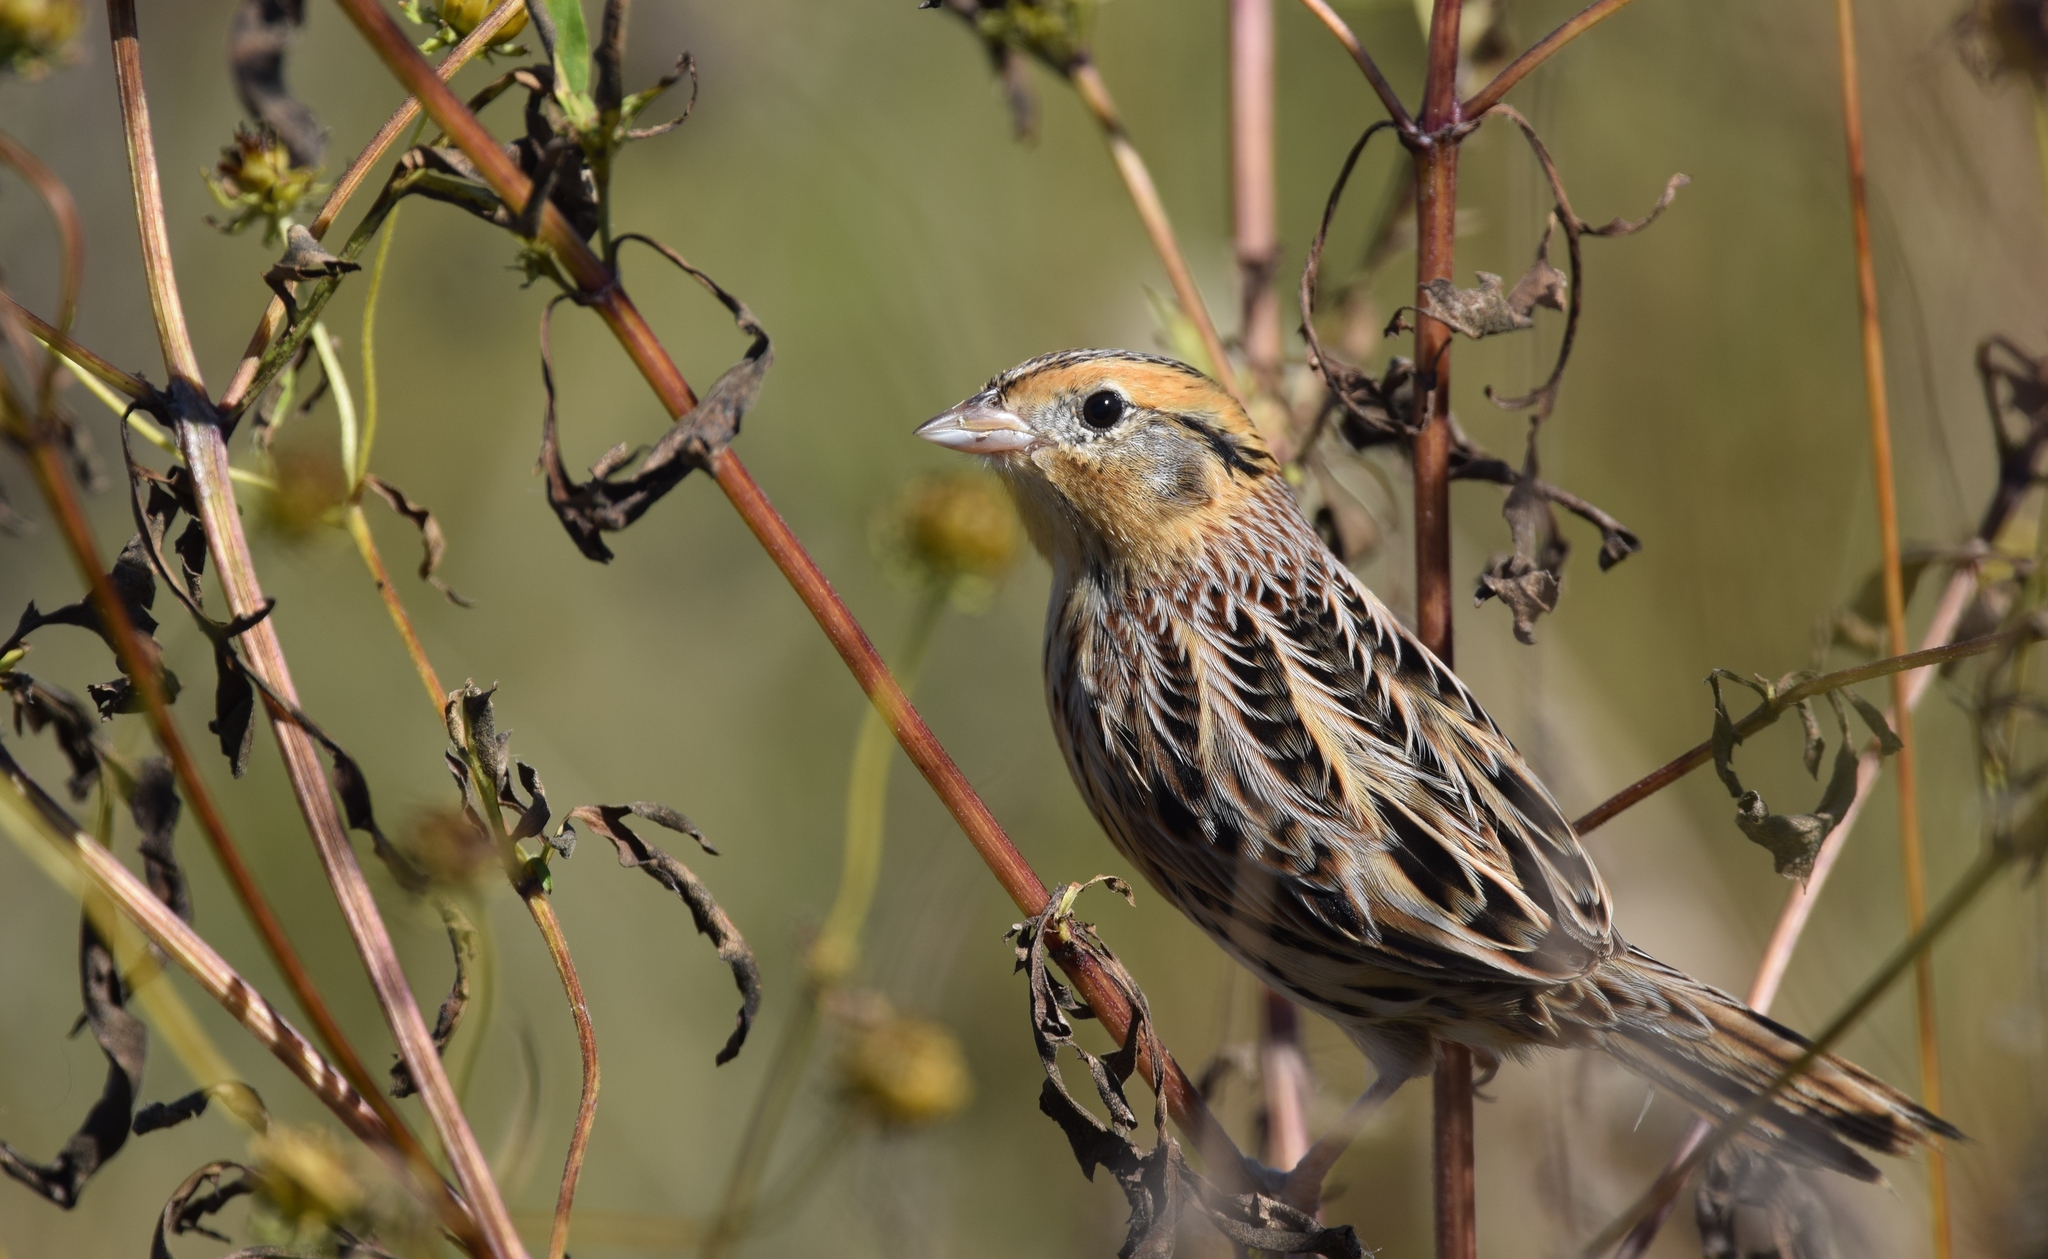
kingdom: Animalia
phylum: Chordata
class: Aves
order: Passeriformes
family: Passerellidae
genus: Ammospiza
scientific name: Ammospiza leconteii
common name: Le conte's sparrow
